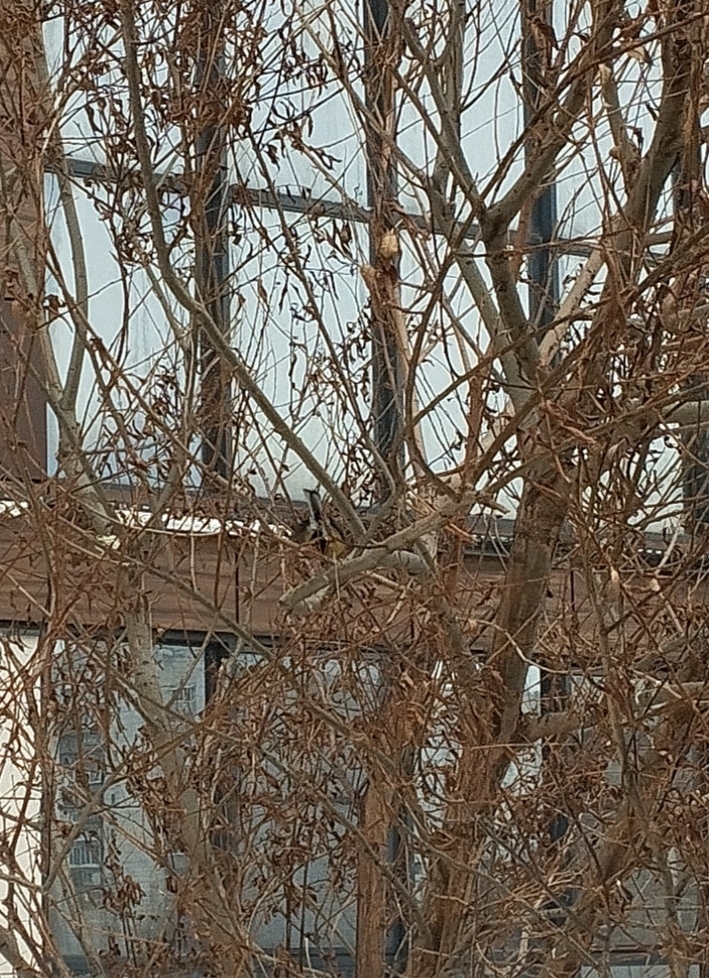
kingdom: Animalia
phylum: Chordata
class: Aves
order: Passeriformes
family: Paridae
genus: Parus
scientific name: Parus major
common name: Great tit
